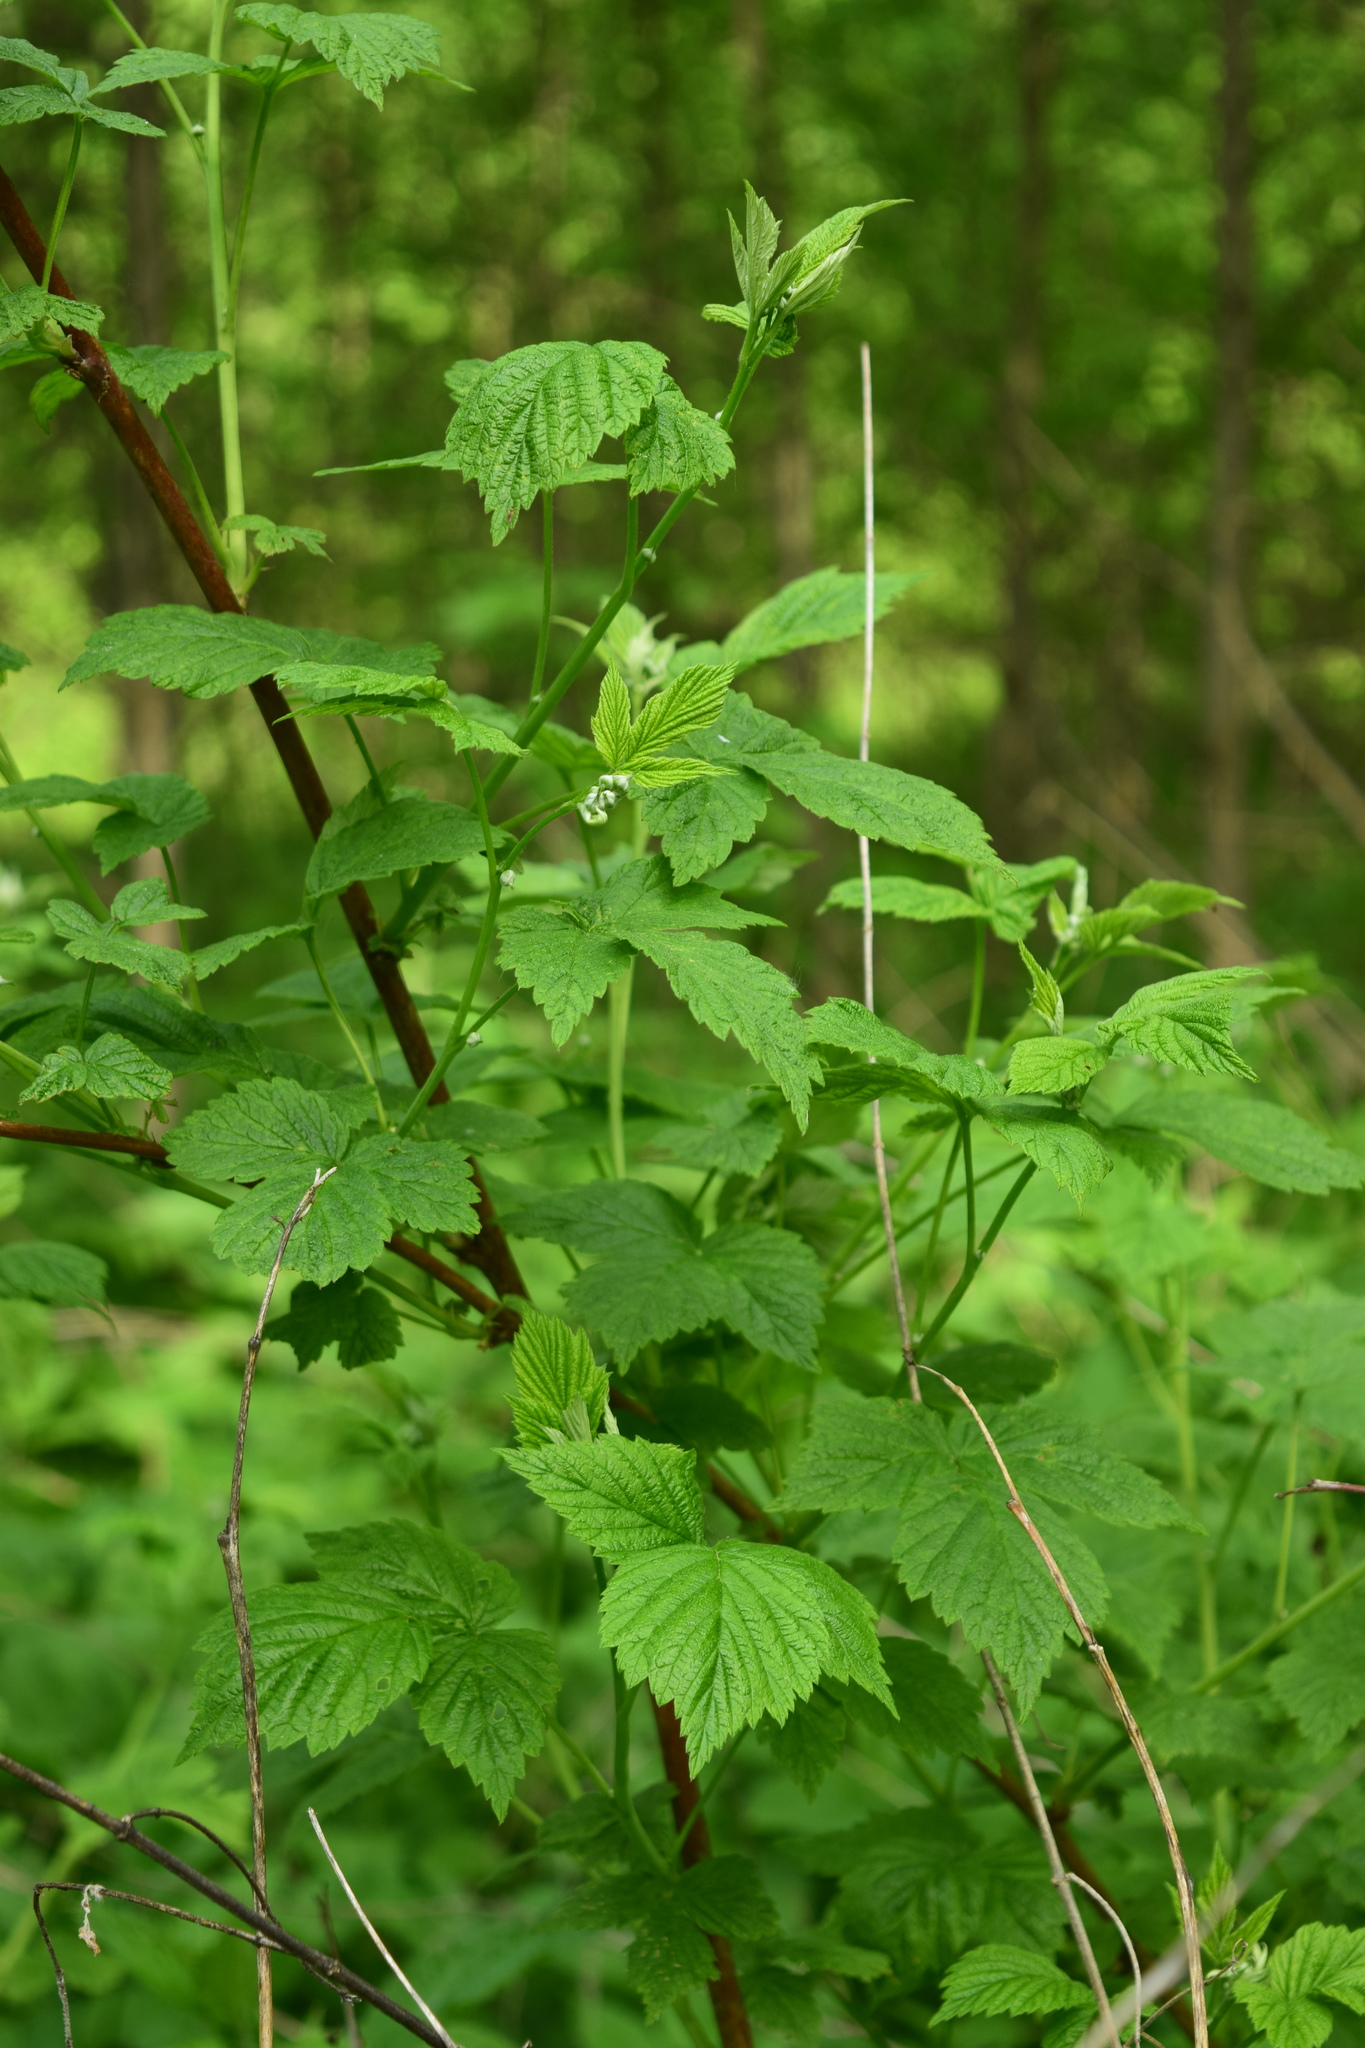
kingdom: Plantae
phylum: Tracheophyta
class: Magnoliopsida
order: Rosales
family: Rosaceae
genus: Rubus
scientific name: Rubus idaeus
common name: Raspberry
